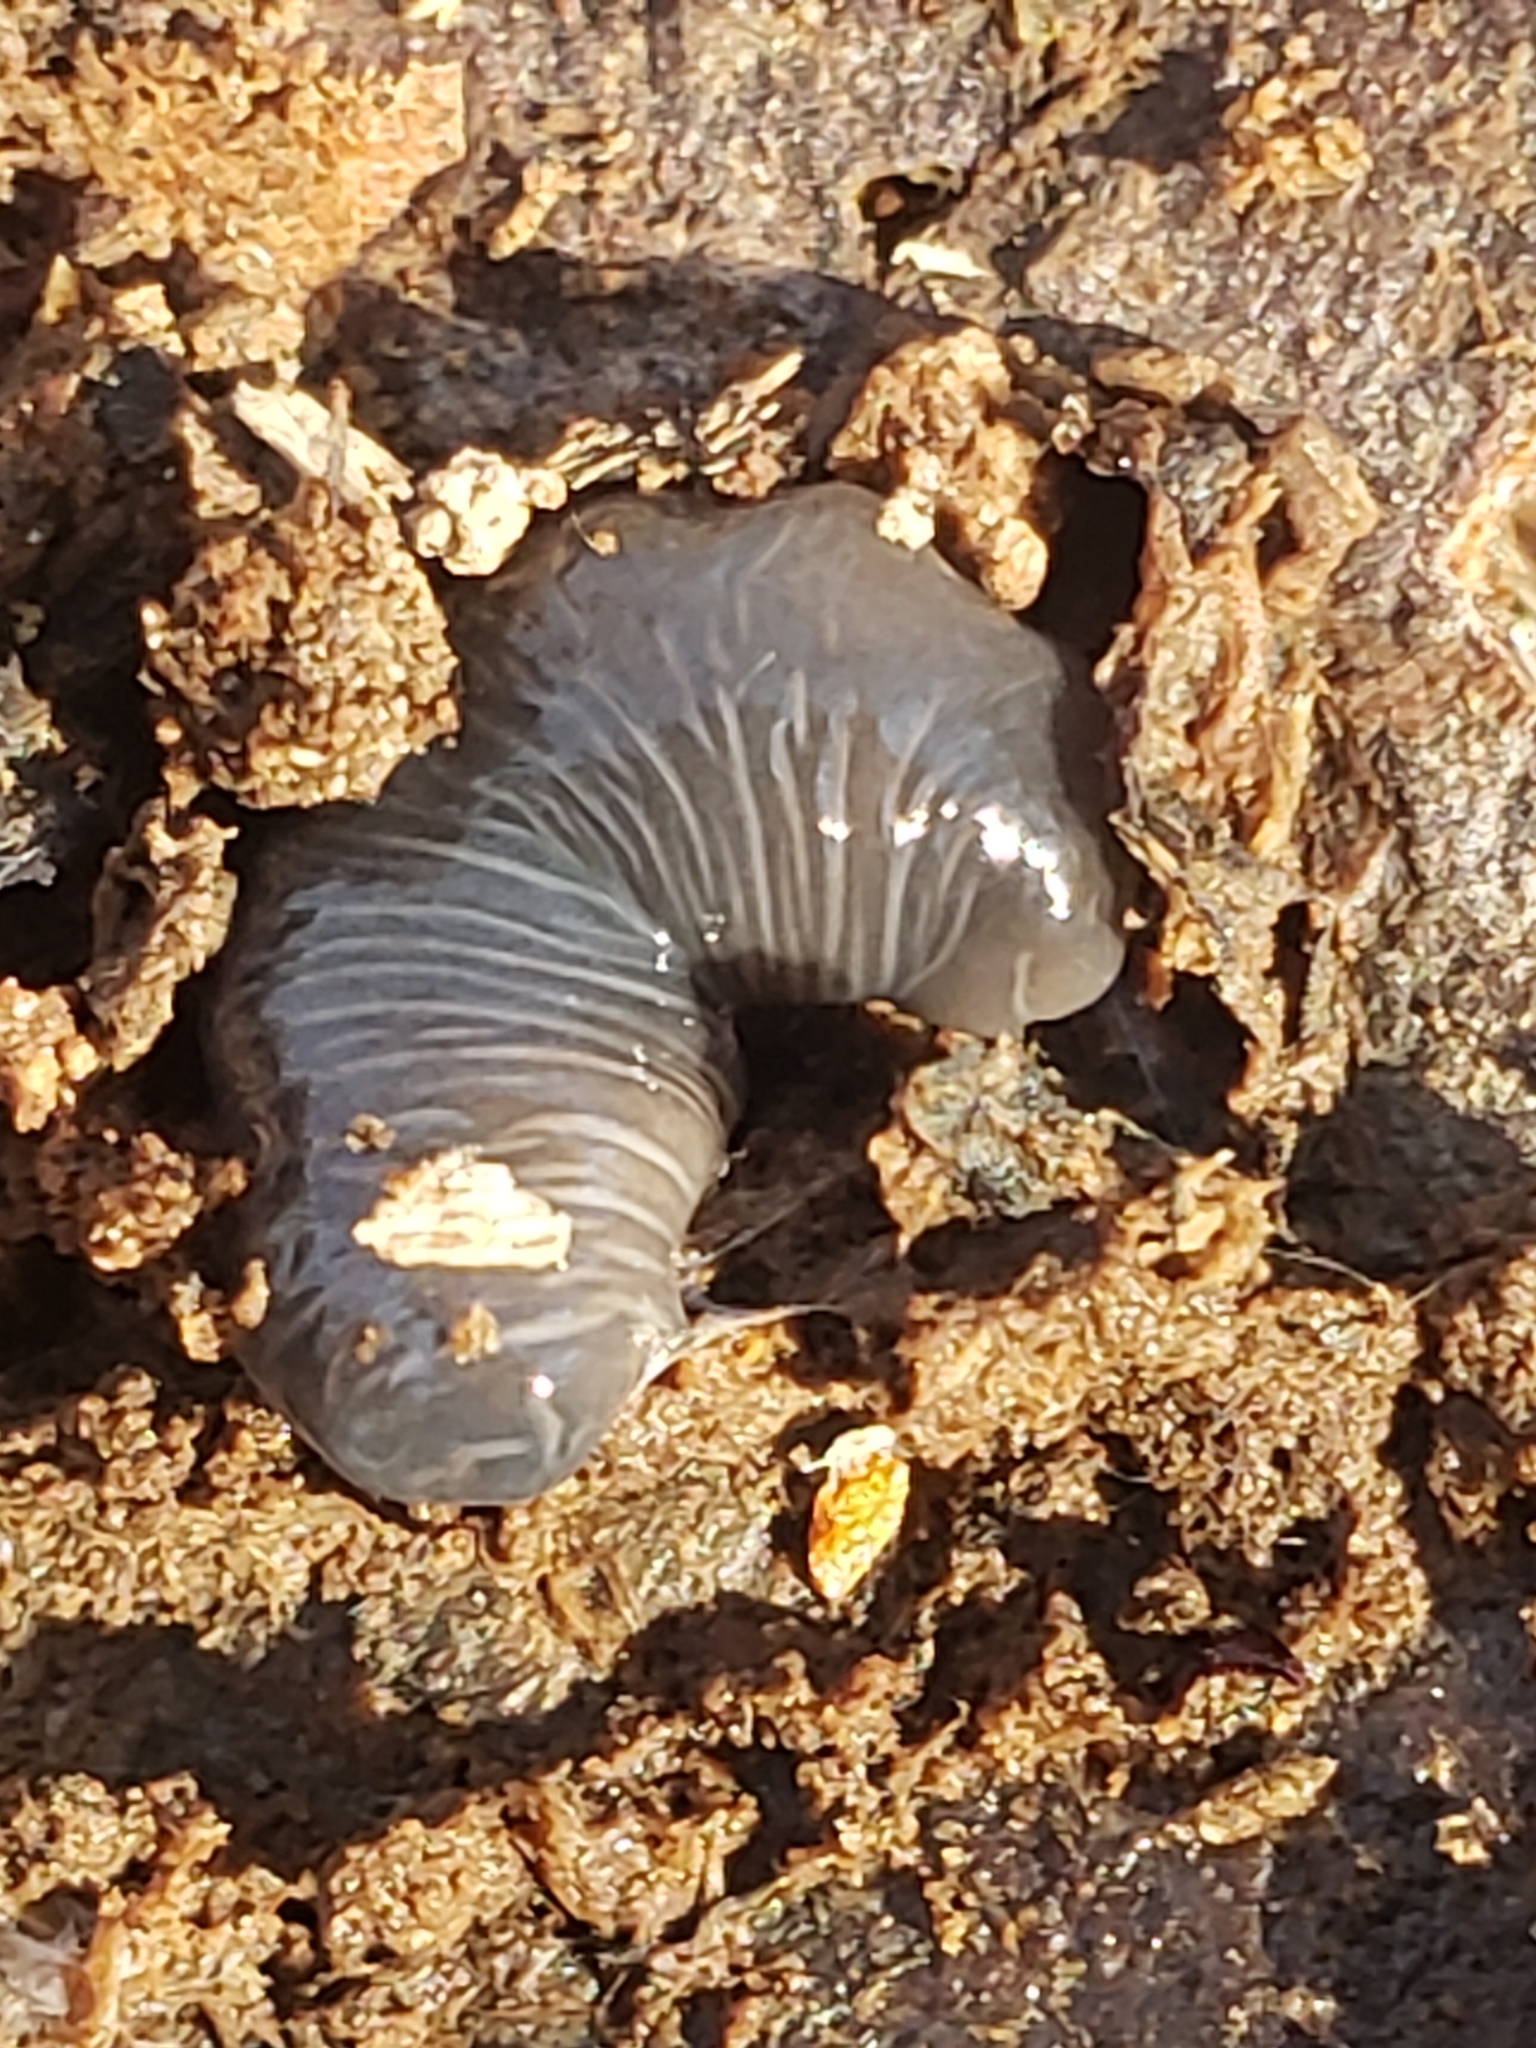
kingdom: Animalia
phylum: Platyhelminthes
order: Tricladida
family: Geoplanidae
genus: Microplana
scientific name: Microplana terrestris
